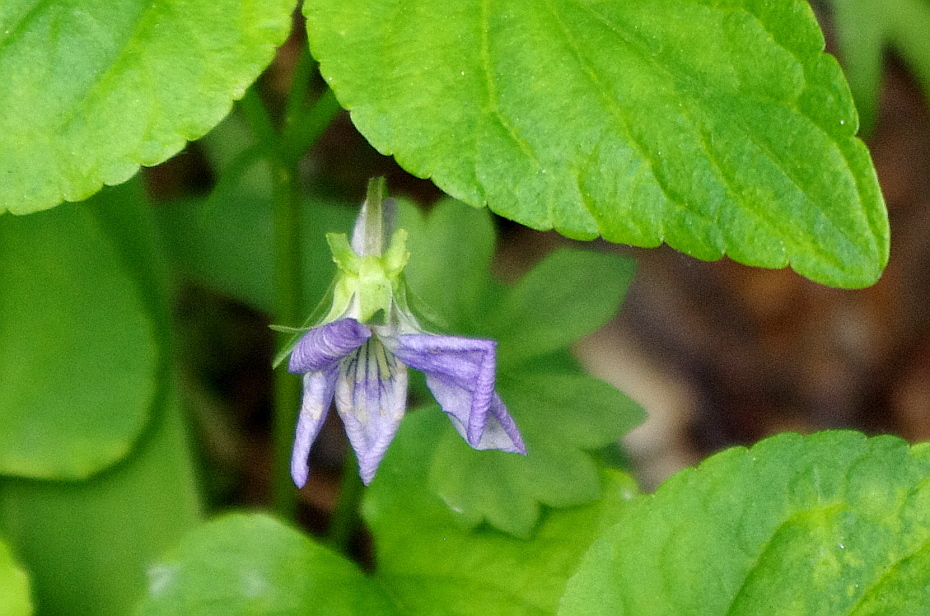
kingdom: Plantae
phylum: Tracheophyta
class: Magnoliopsida
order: Malpighiales
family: Violaceae
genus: Viola
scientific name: Viola riviniana
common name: Common dog-violet
